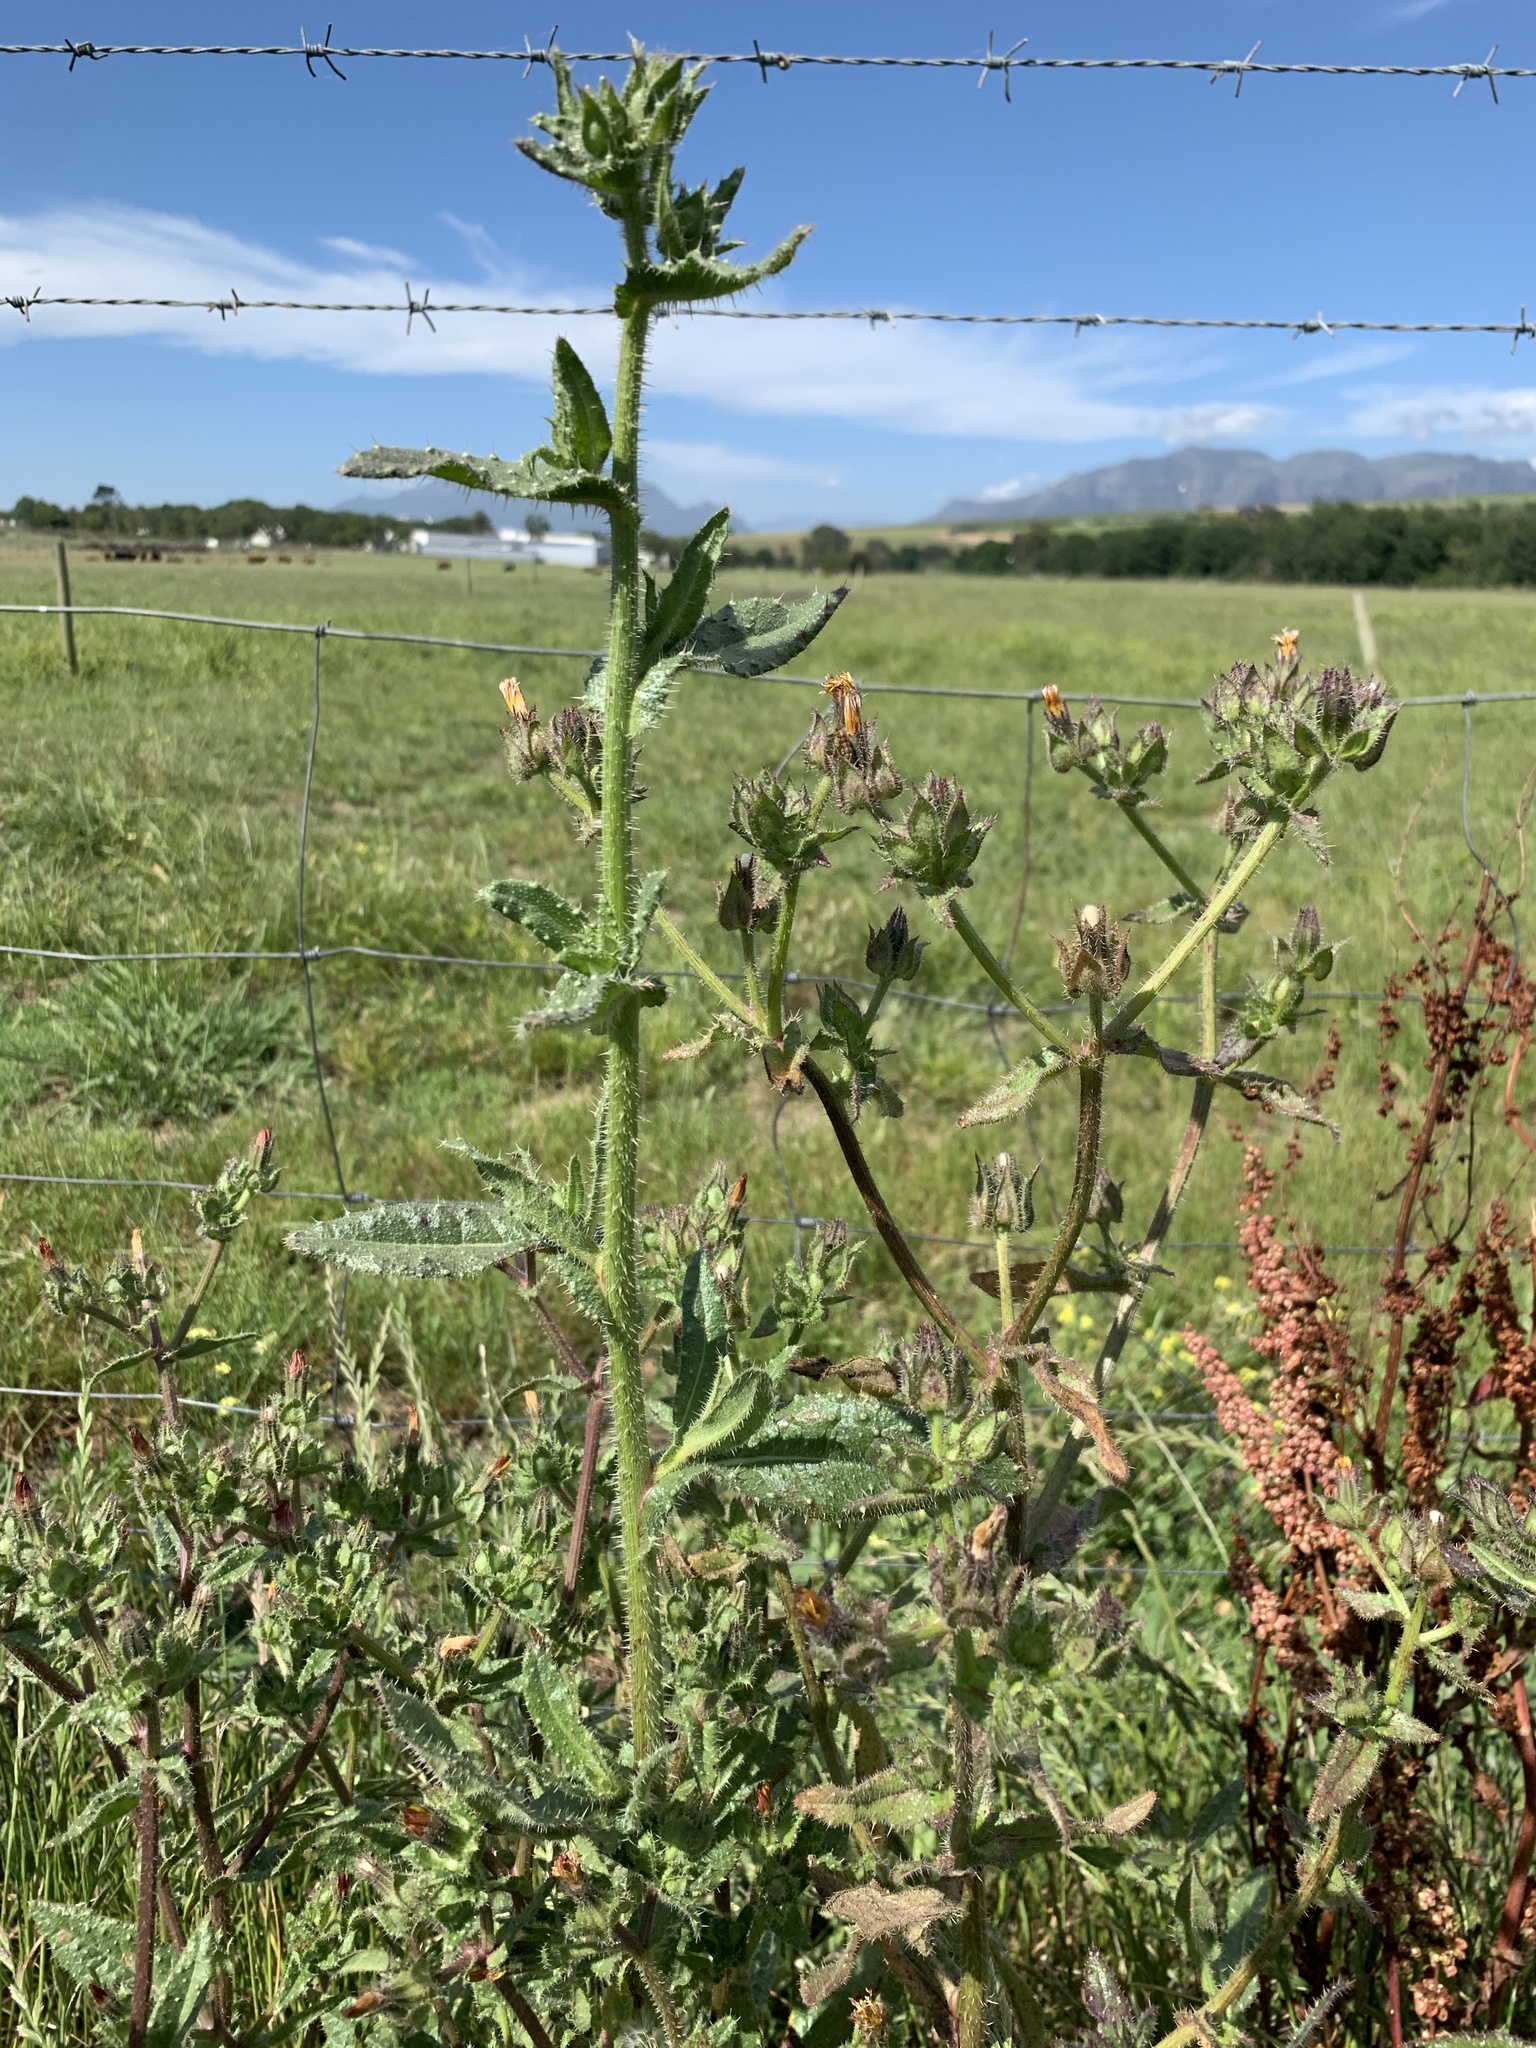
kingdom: Plantae
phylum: Tracheophyta
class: Magnoliopsida
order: Asterales
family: Asteraceae
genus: Helminthotheca
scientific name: Helminthotheca echioides
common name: Ox-tongue
